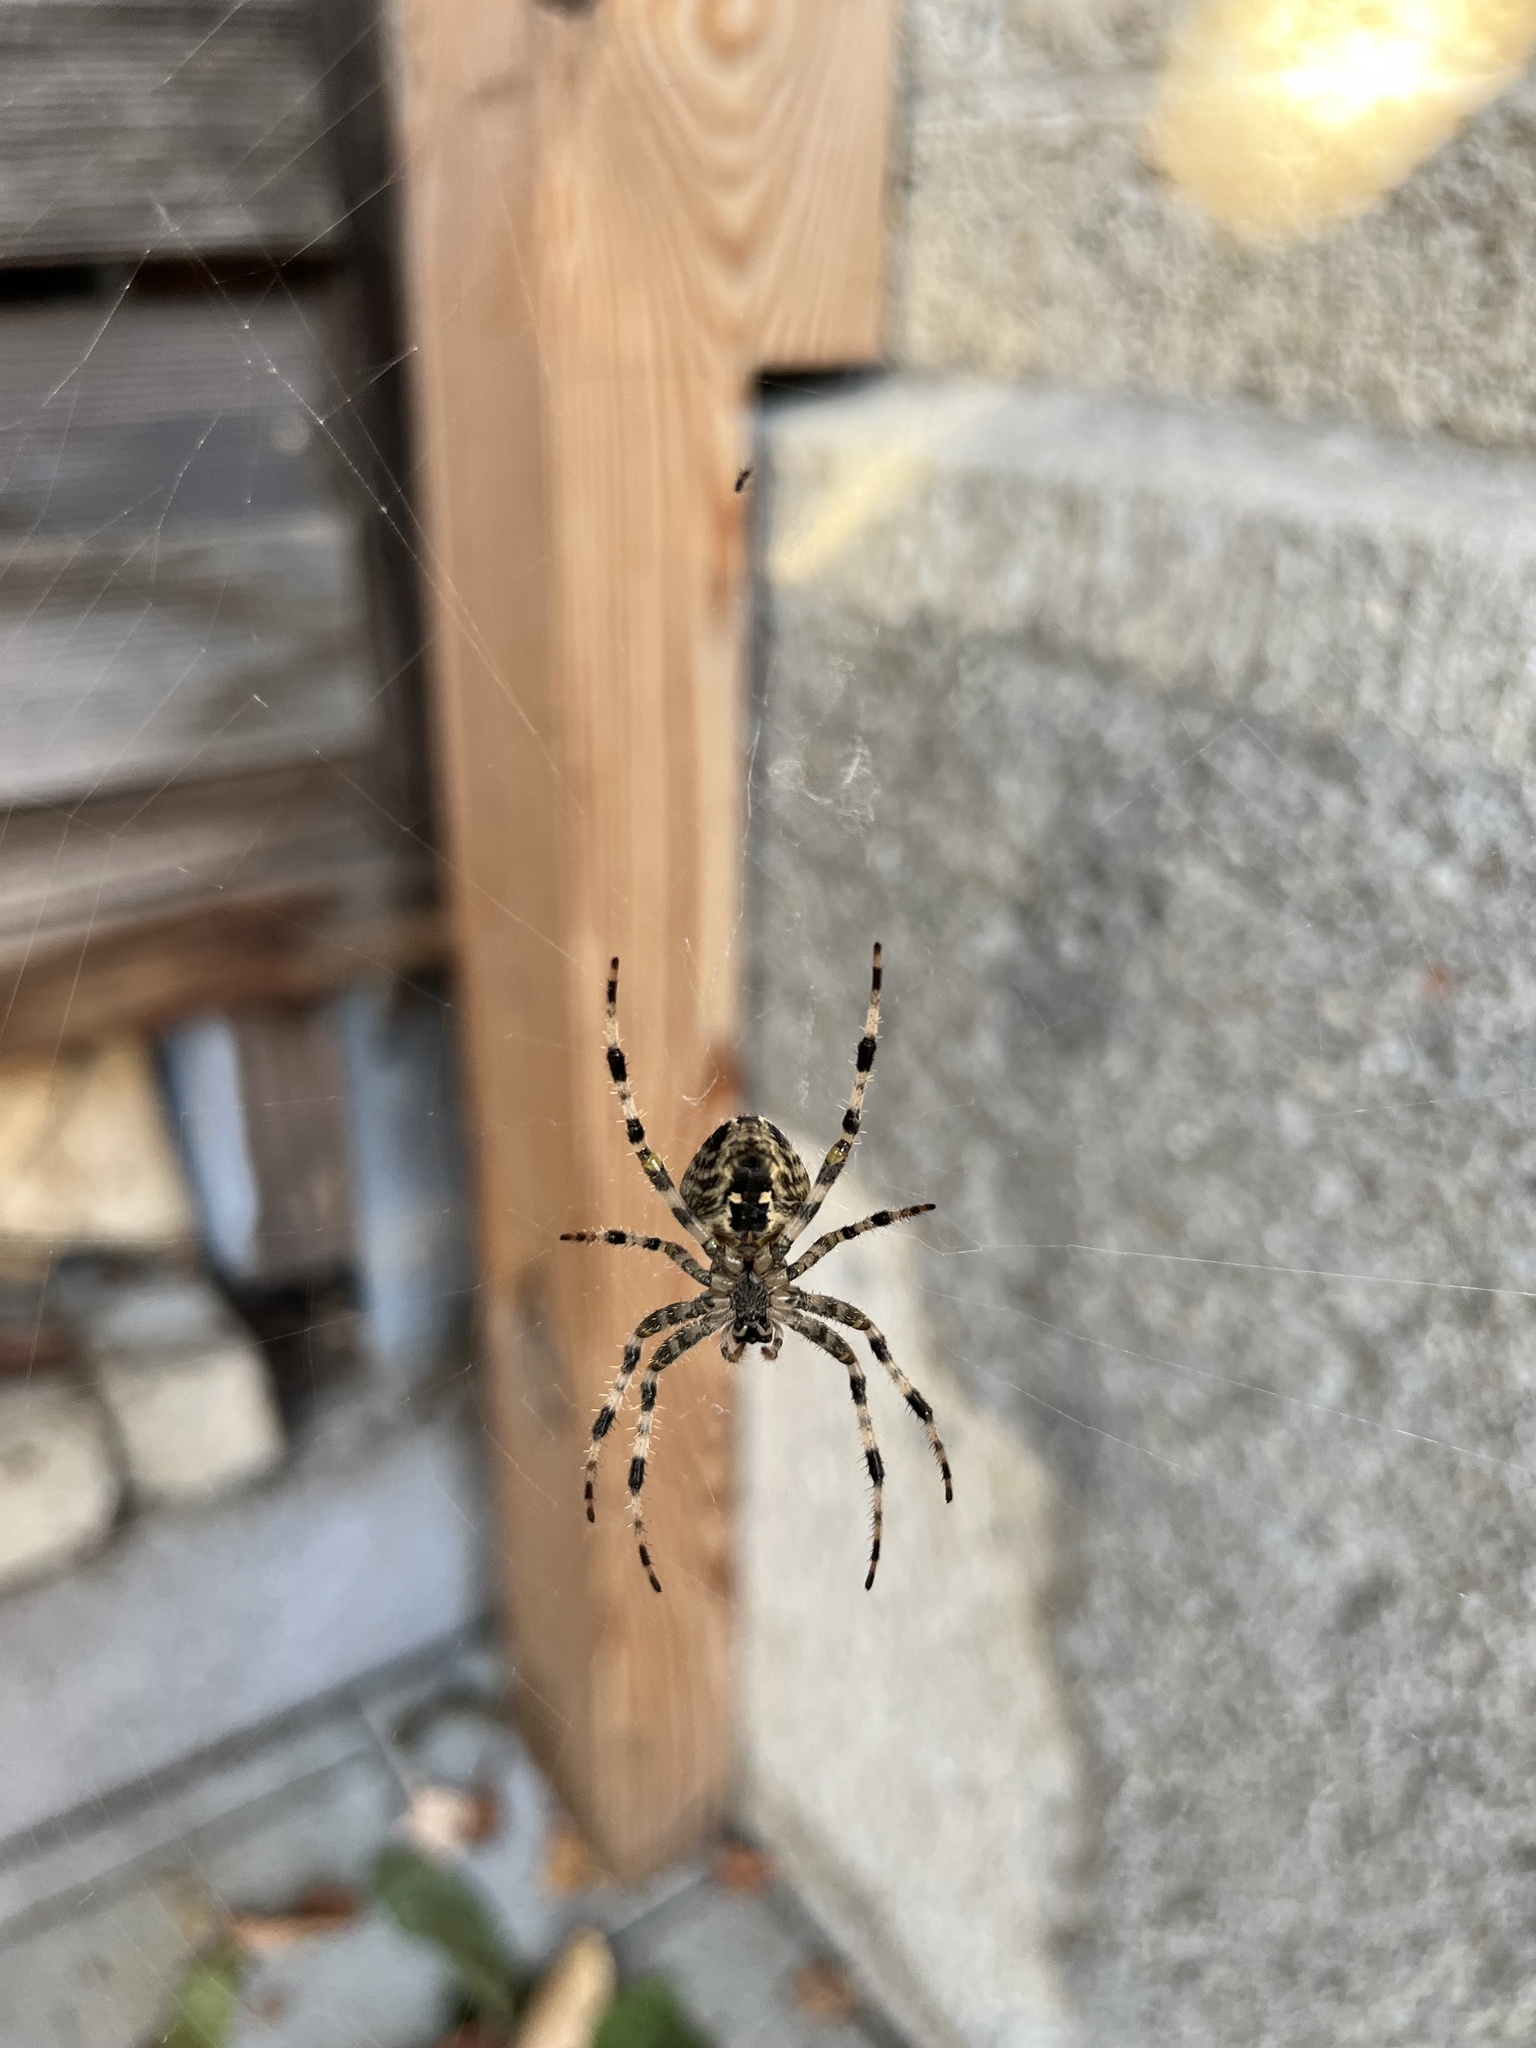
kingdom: Animalia
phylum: Arthropoda
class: Arachnida
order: Araneae
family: Araneidae
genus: Araneus
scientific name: Araneus diadematus
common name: Cross orbweaver
